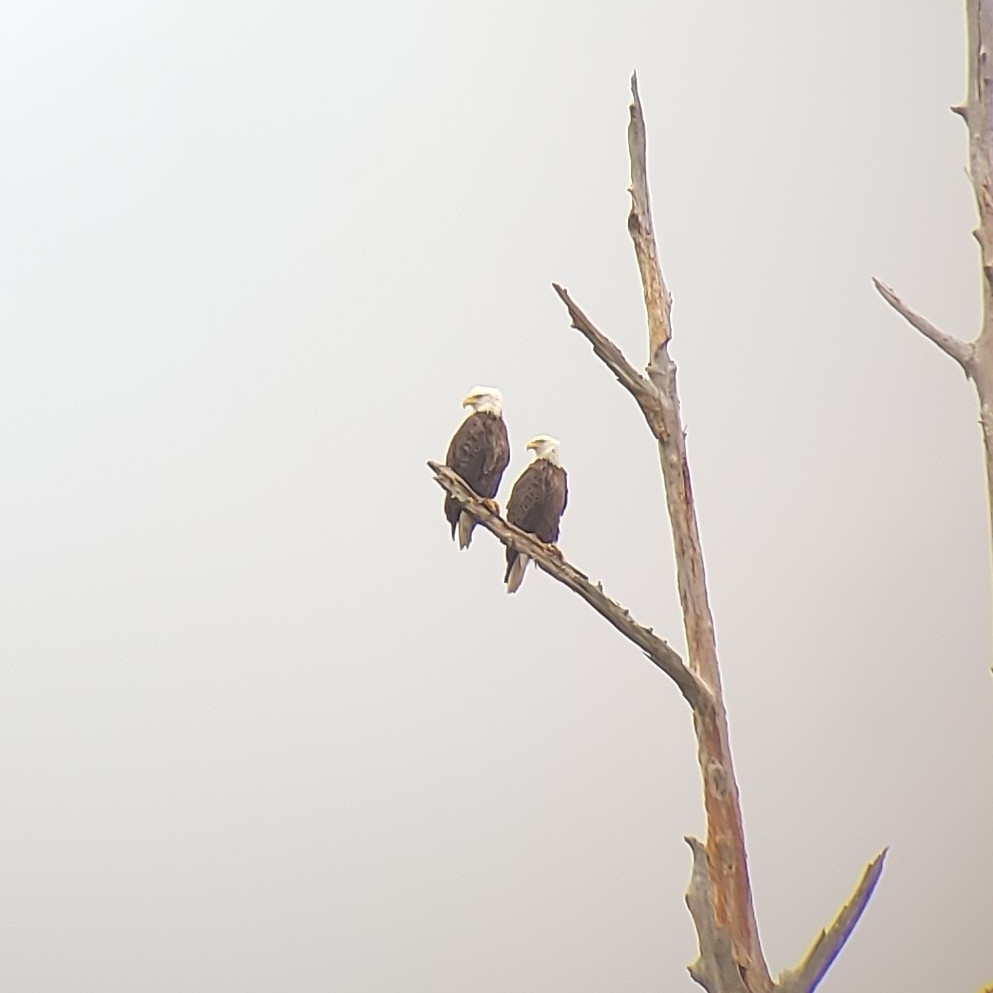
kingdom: Animalia
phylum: Chordata
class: Aves
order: Accipitriformes
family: Accipitridae
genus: Haliaeetus
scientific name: Haliaeetus leucocephalus
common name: Bald eagle
